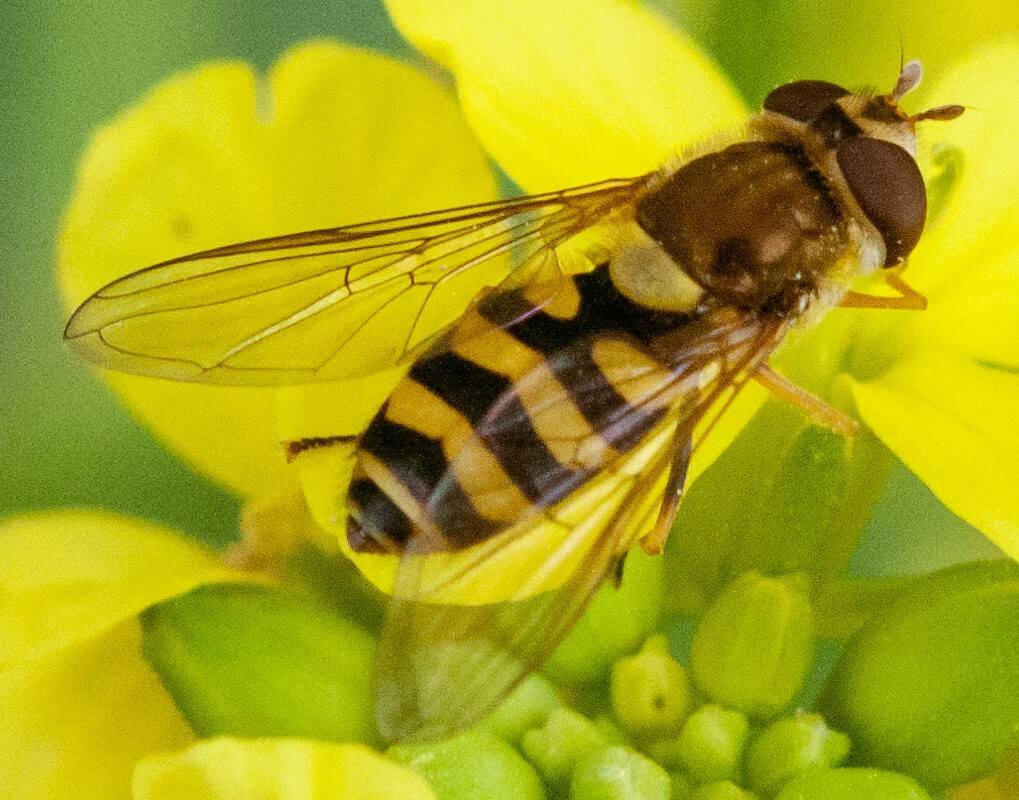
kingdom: Animalia
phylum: Arthropoda
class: Insecta
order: Diptera
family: Syrphidae
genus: Syrphus
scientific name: Syrphus
